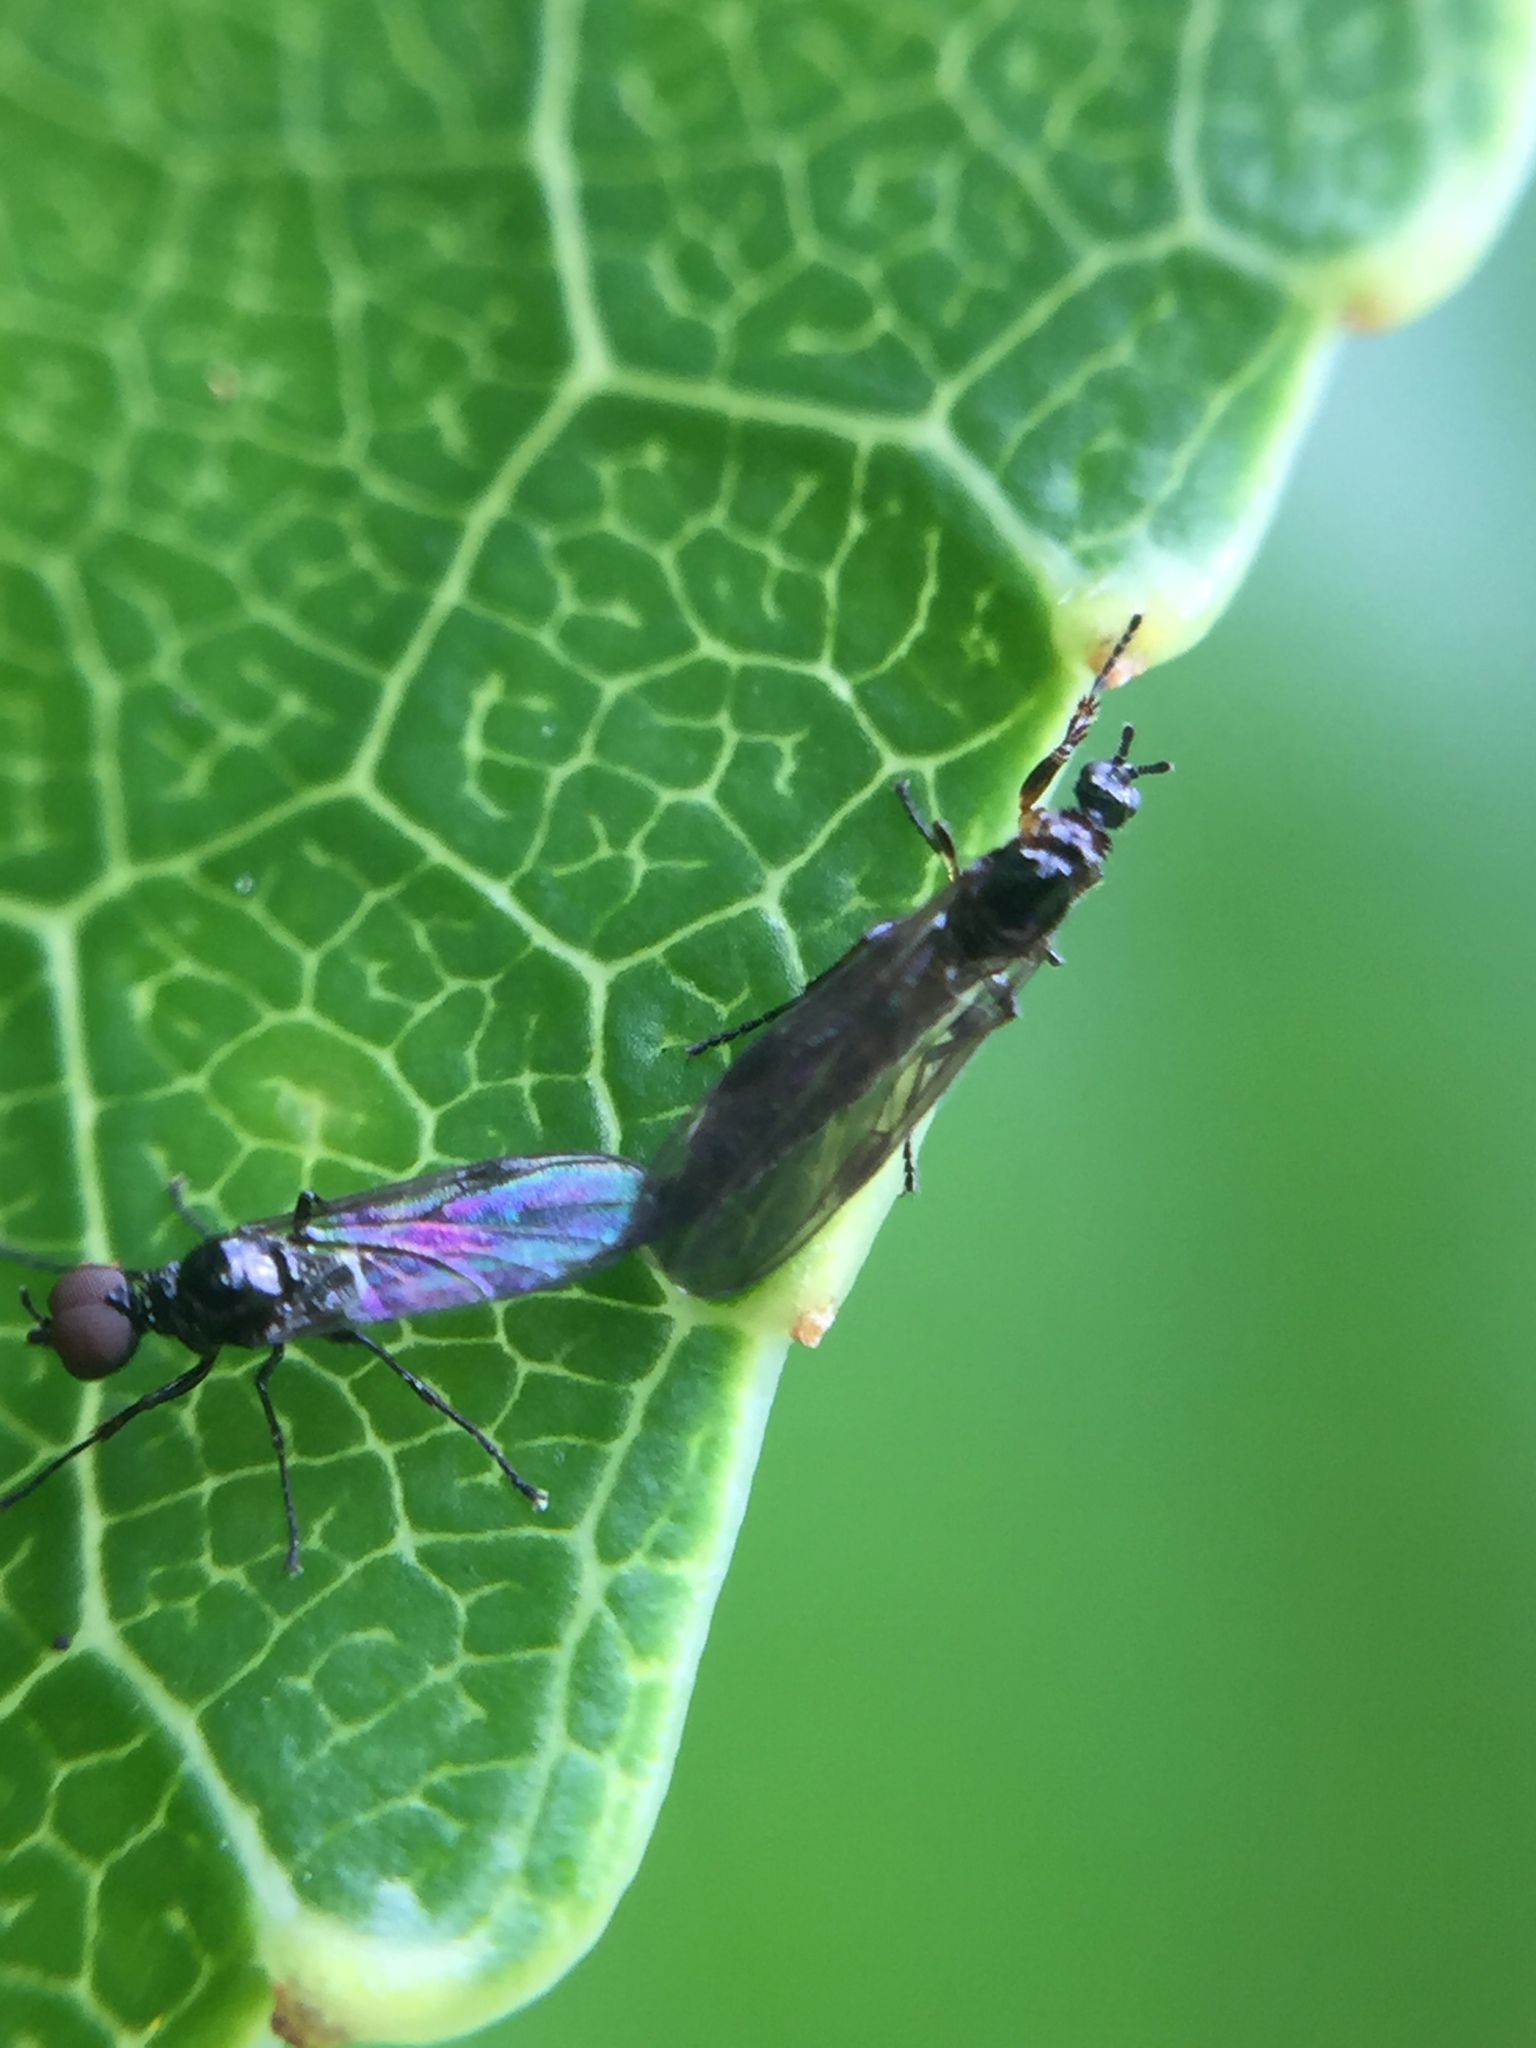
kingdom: Animalia
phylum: Arthropoda
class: Insecta
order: Diptera
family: Bibionidae
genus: Dilophus
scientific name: Dilophus tuthilli
